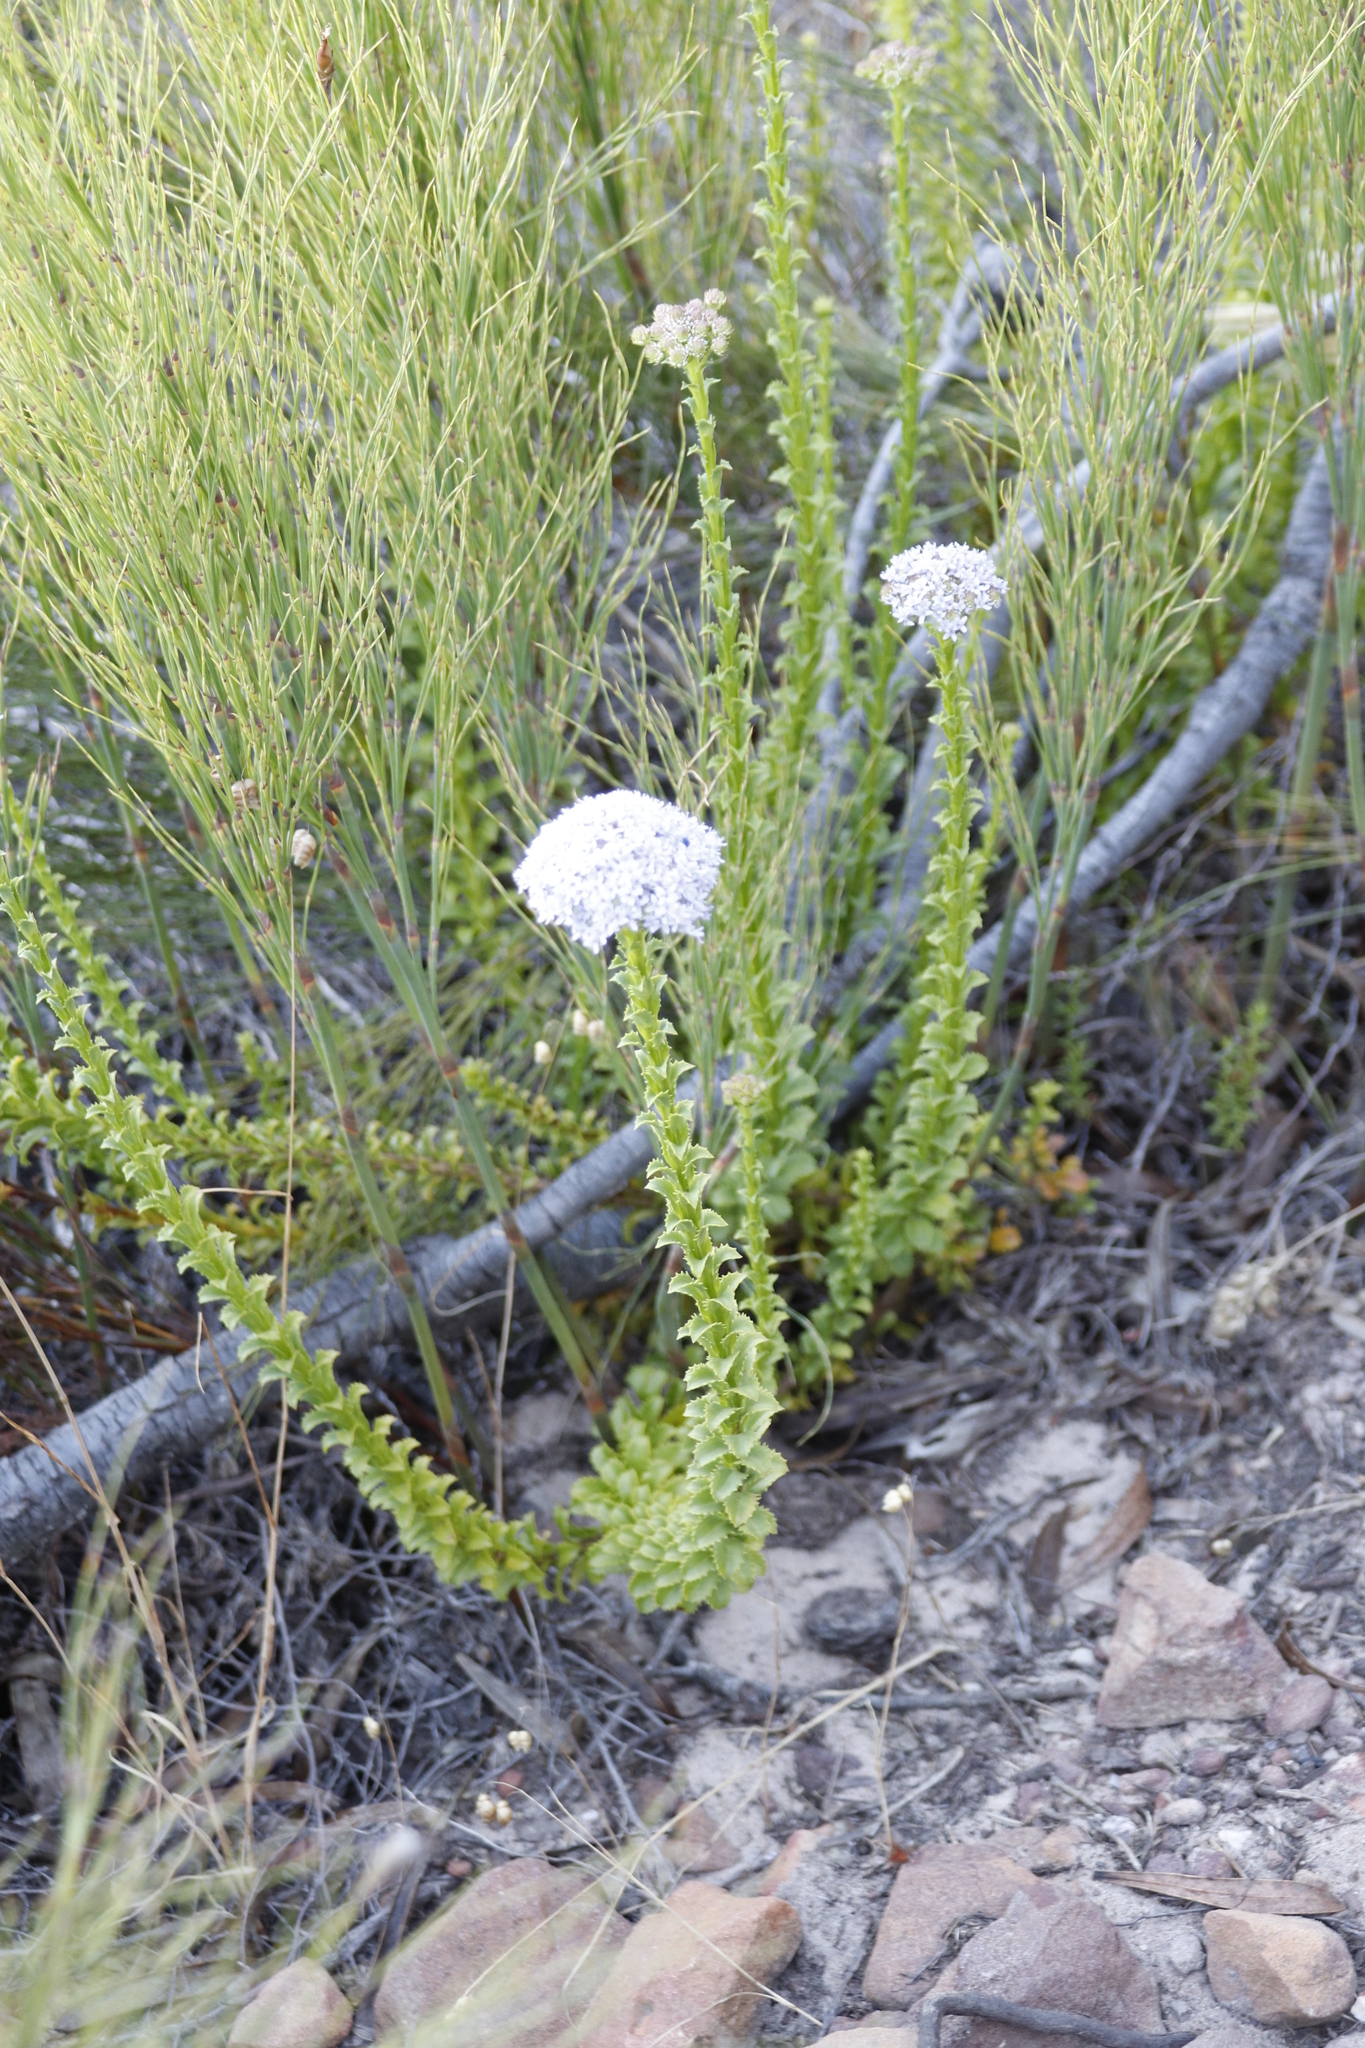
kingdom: Plantae
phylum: Tracheophyta
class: Magnoliopsida
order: Lamiales
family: Scrophulariaceae
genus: Pseudoselago
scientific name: Pseudoselago serrata
